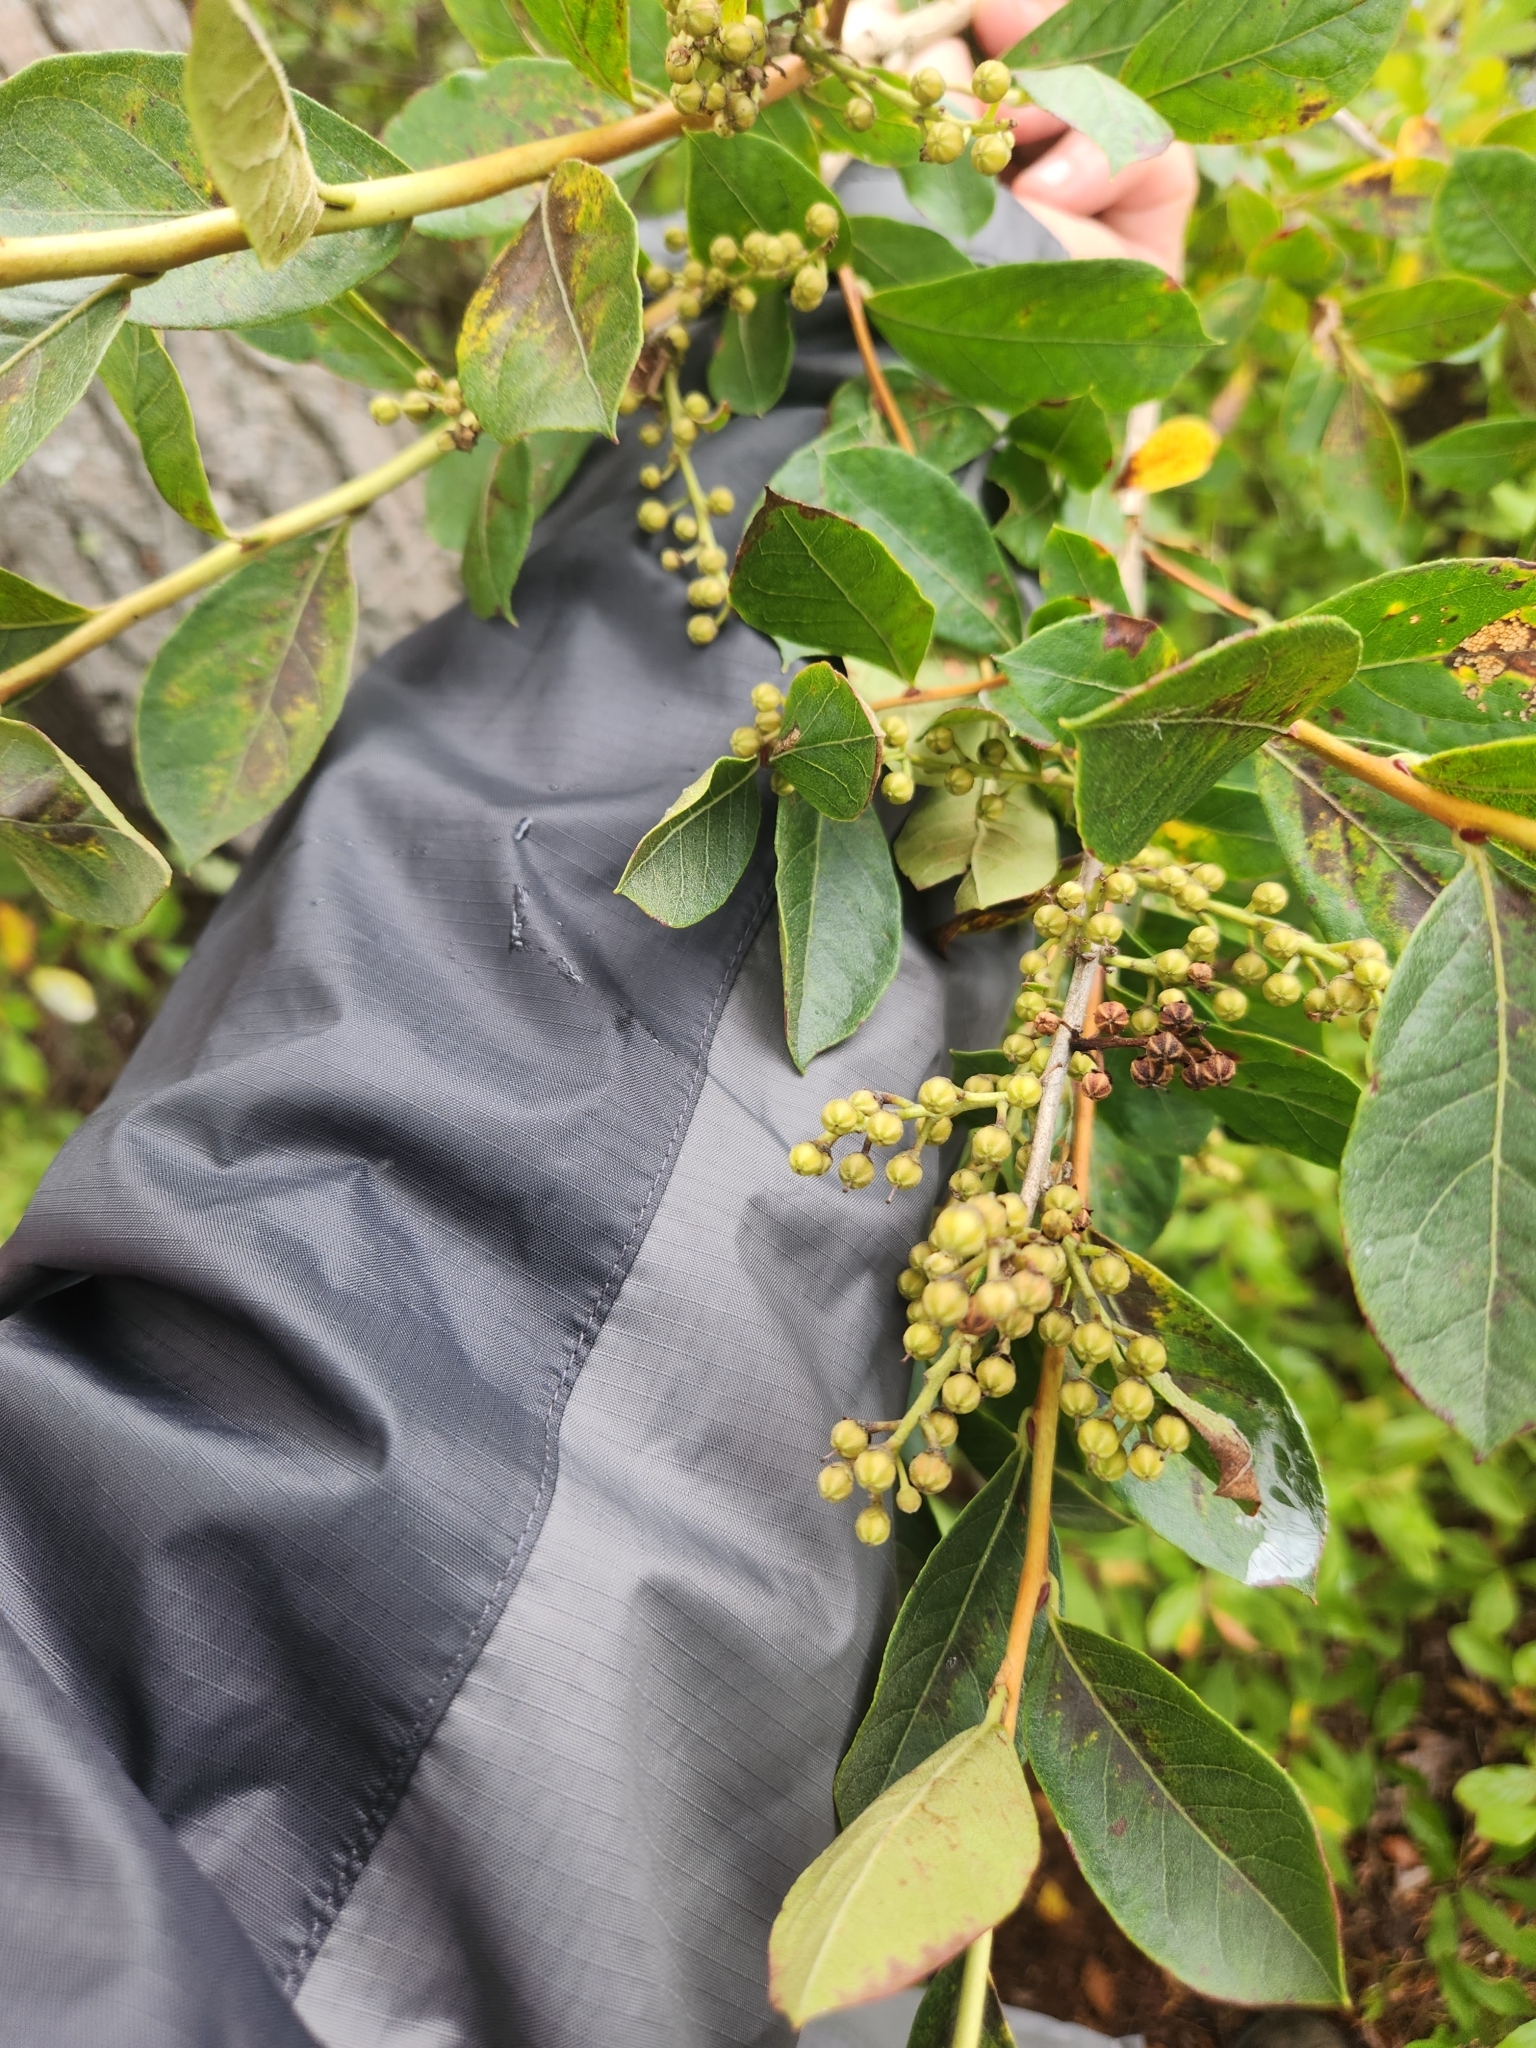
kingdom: Plantae
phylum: Tracheophyta
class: Magnoliopsida
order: Ericales
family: Ericaceae
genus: Lyonia
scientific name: Lyonia ligustrina
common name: Maleberry
